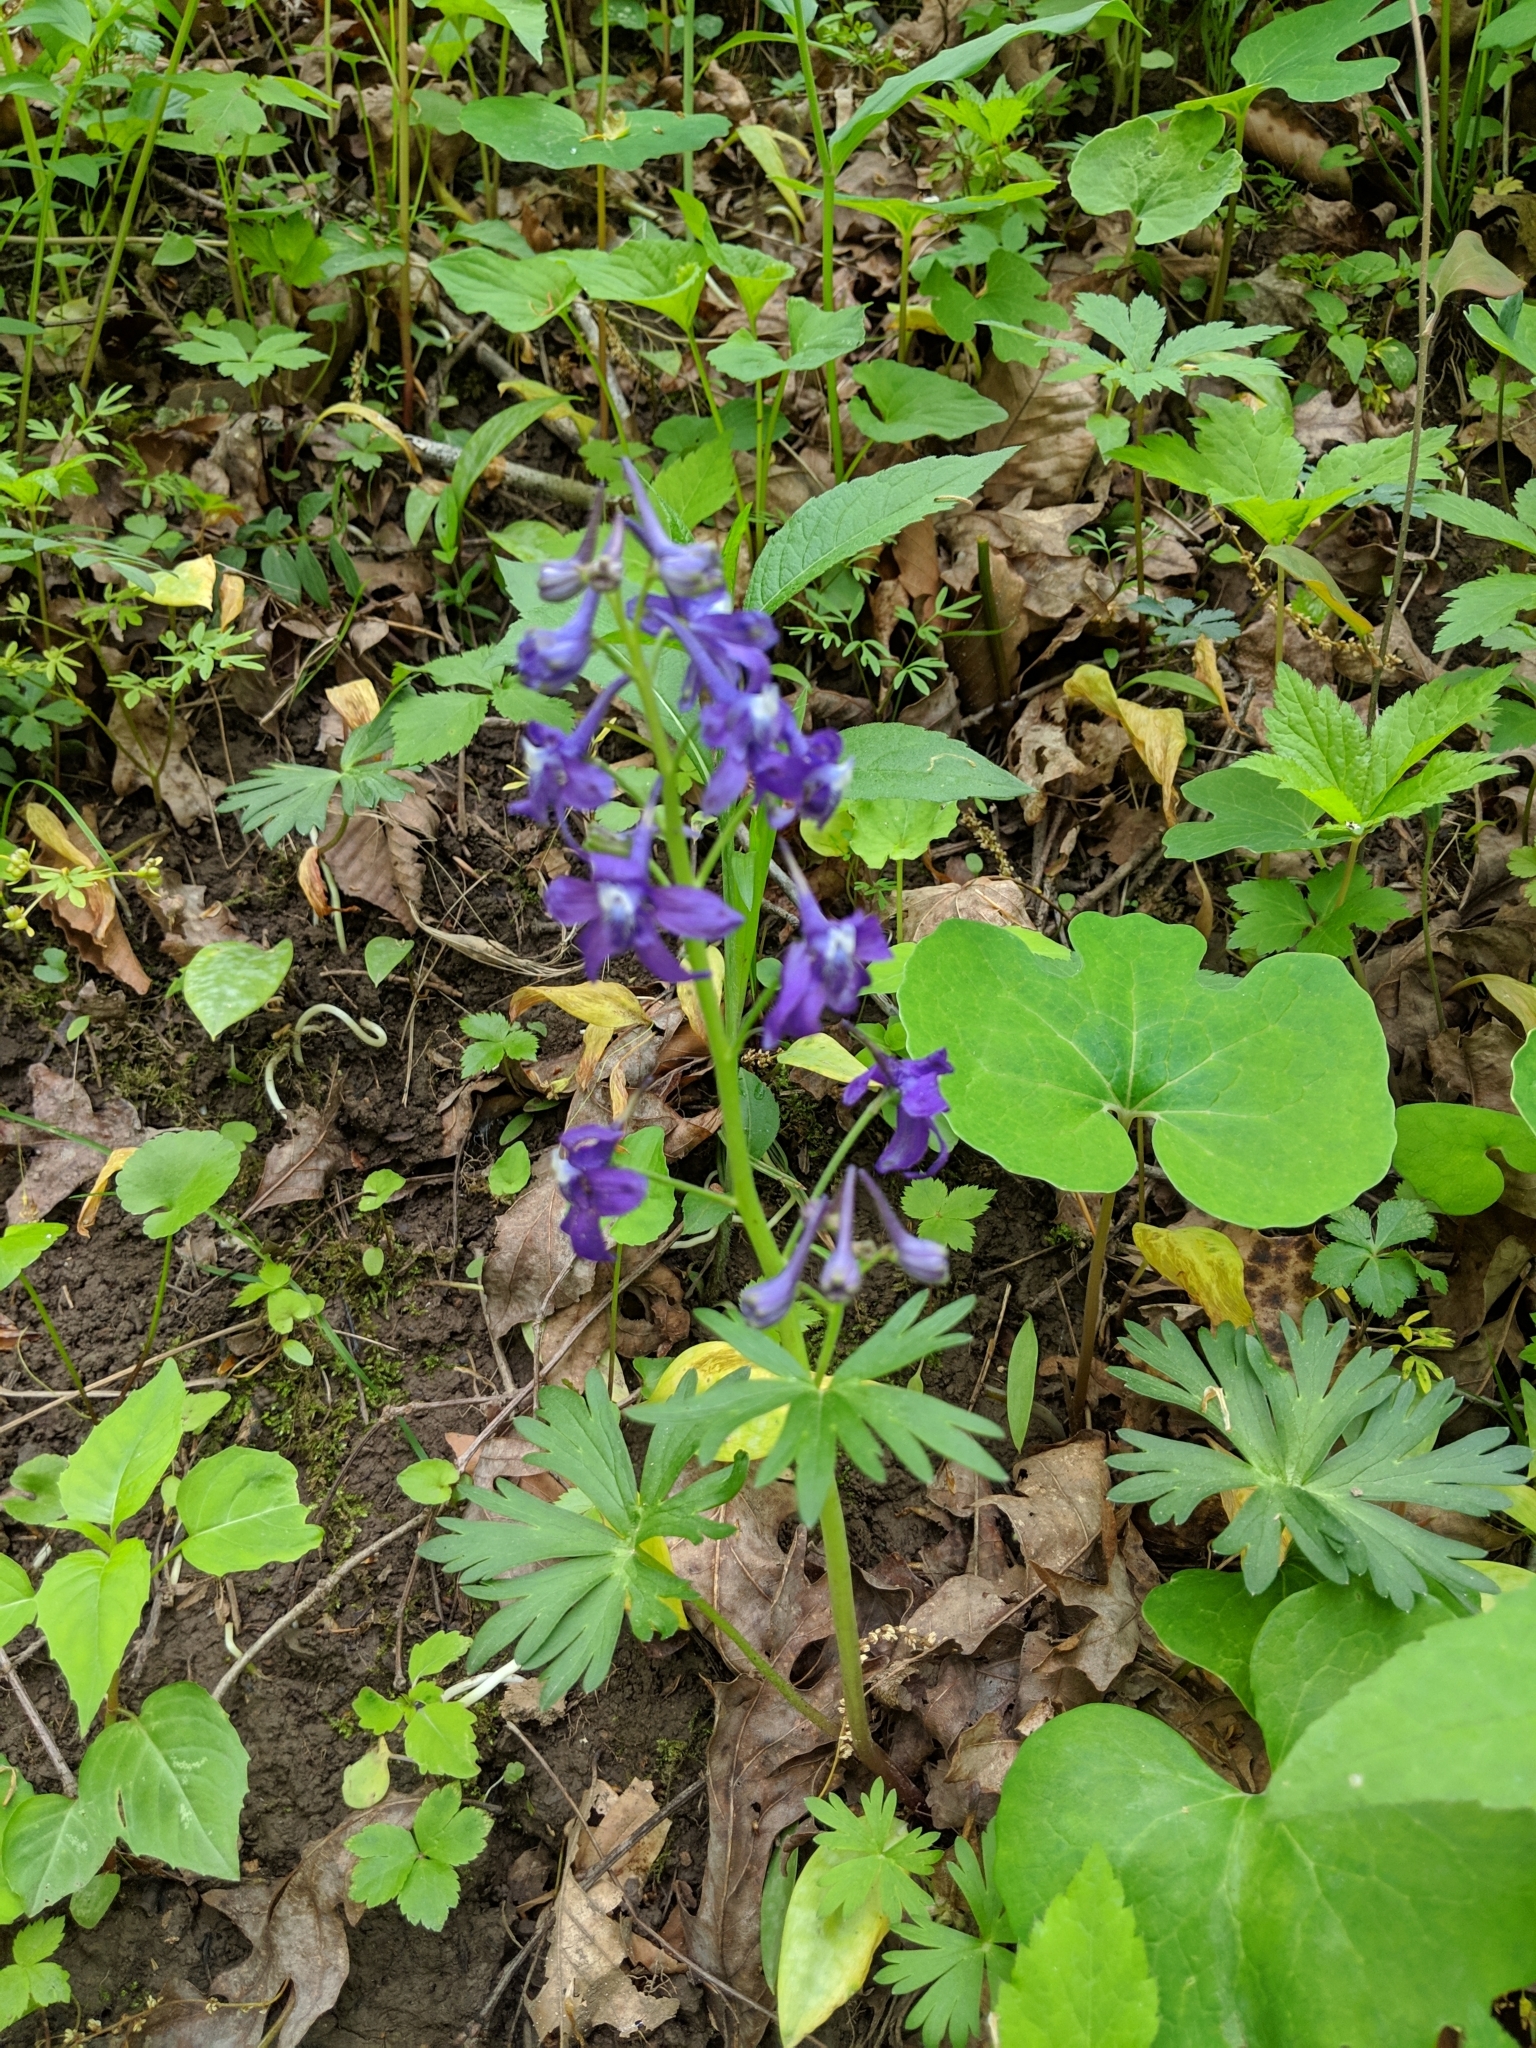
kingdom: Plantae
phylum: Tracheophyta
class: Magnoliopsida
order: Ranunculales
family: Ranunculaceae
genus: Delphinium
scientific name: Delphinium tricorne
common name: Dwarf larkspur
